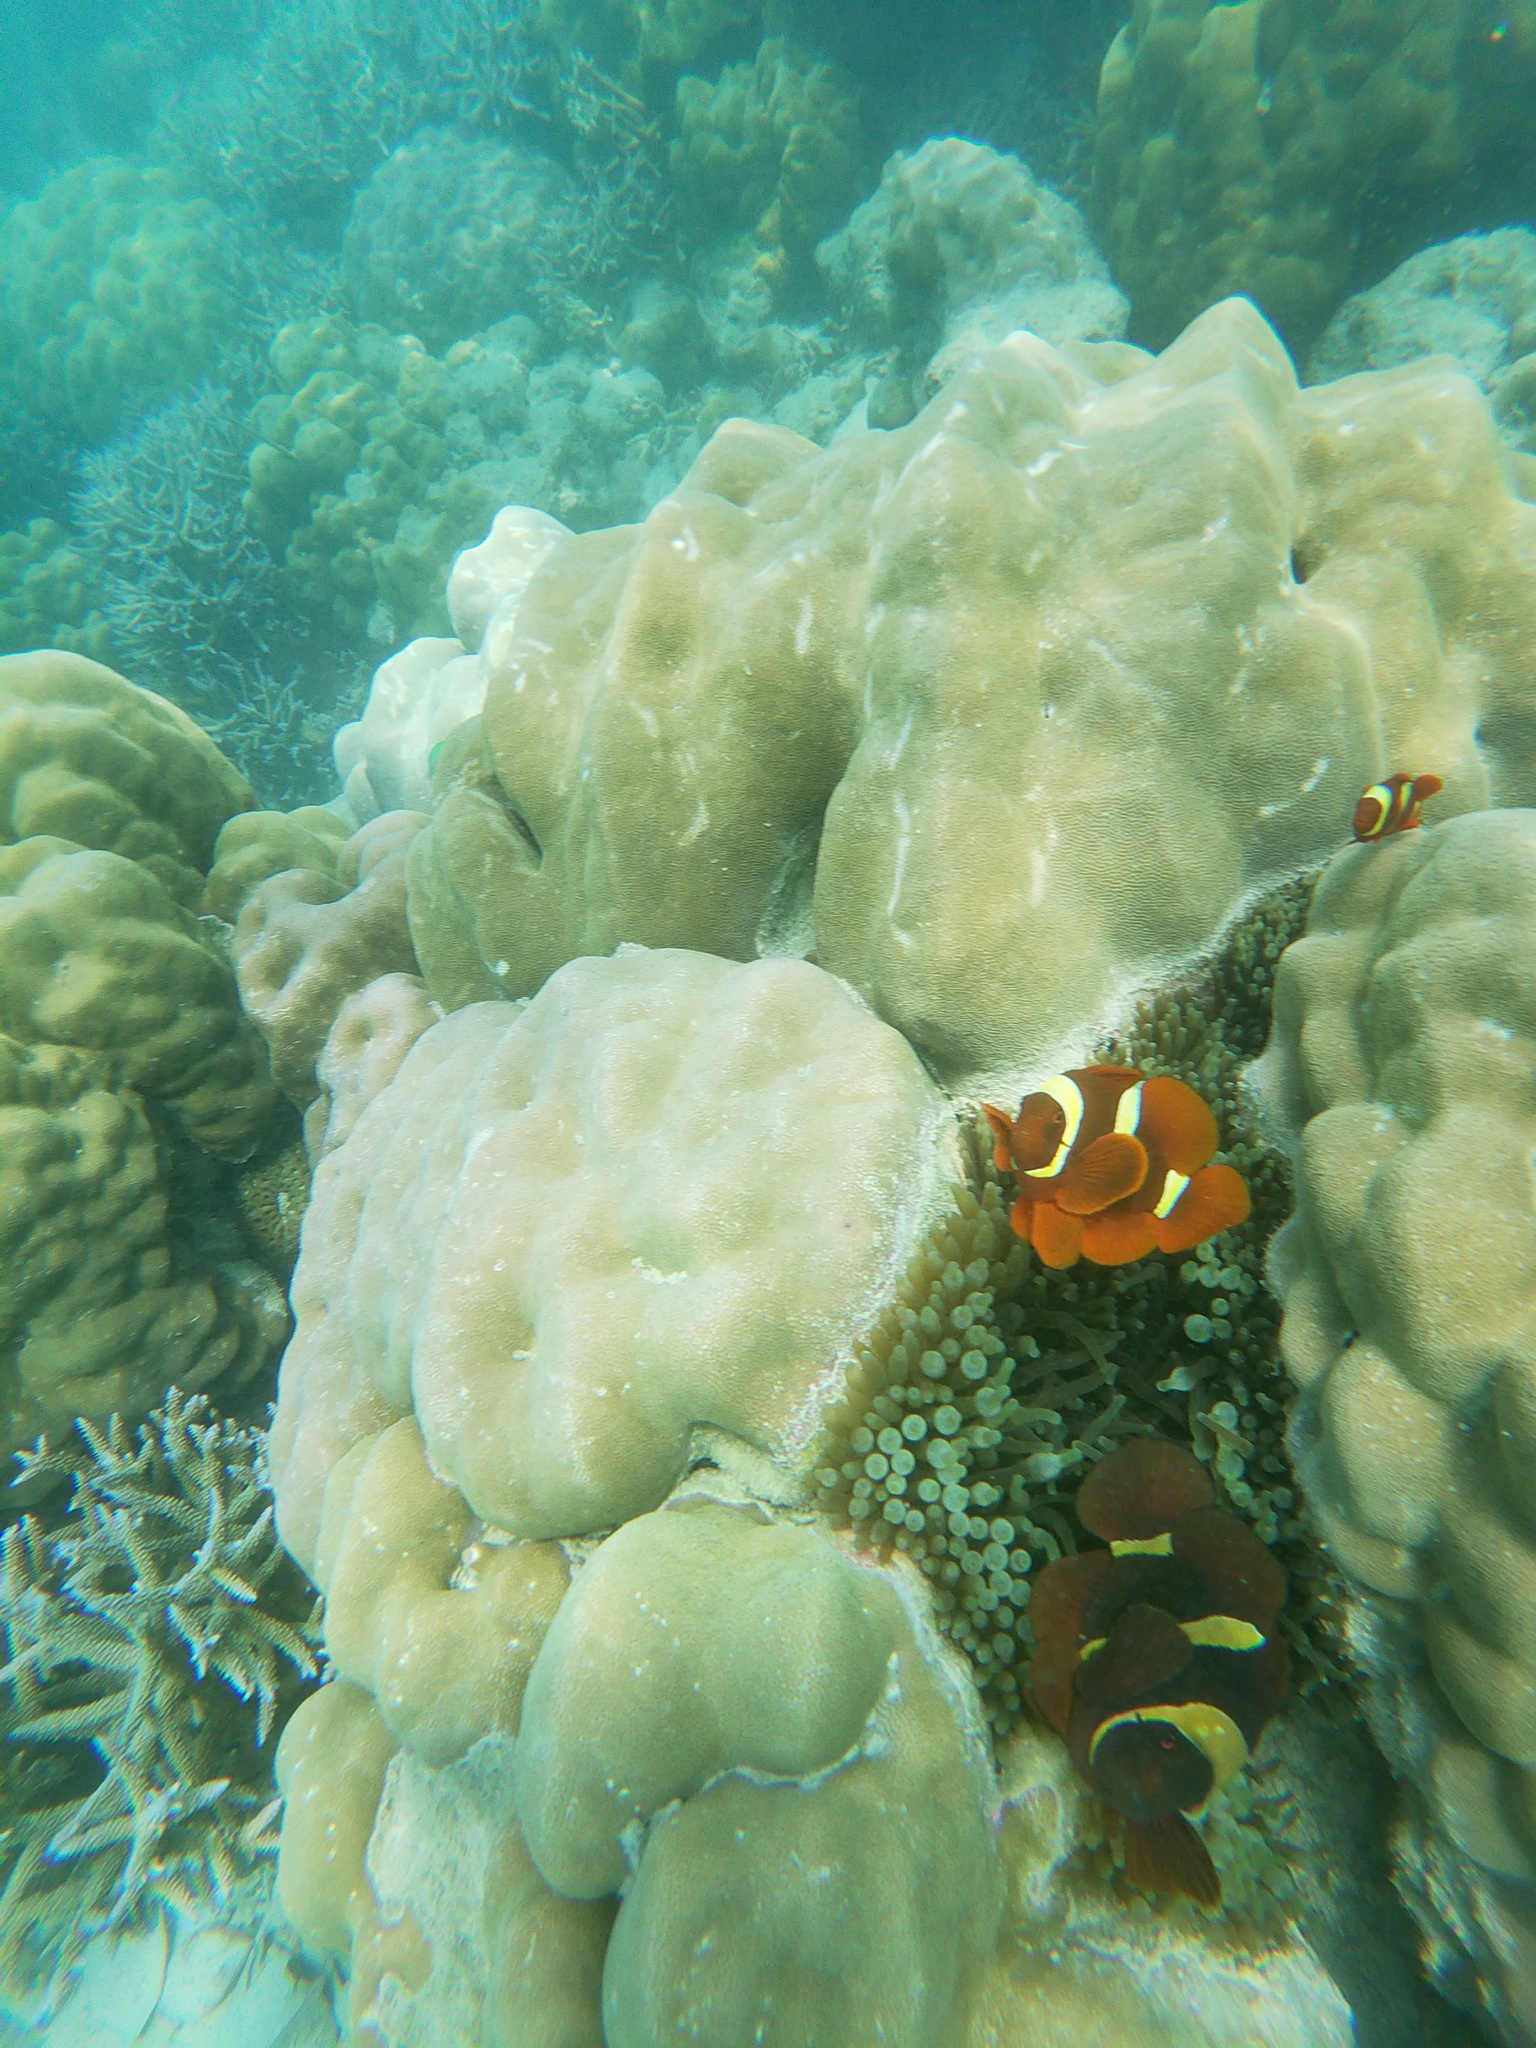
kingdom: Animalia
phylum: Chordata
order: Perciformes
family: Pomacentridae
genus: Premnas
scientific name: Premnas biaculeatus
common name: Spinecheek anemonefish
